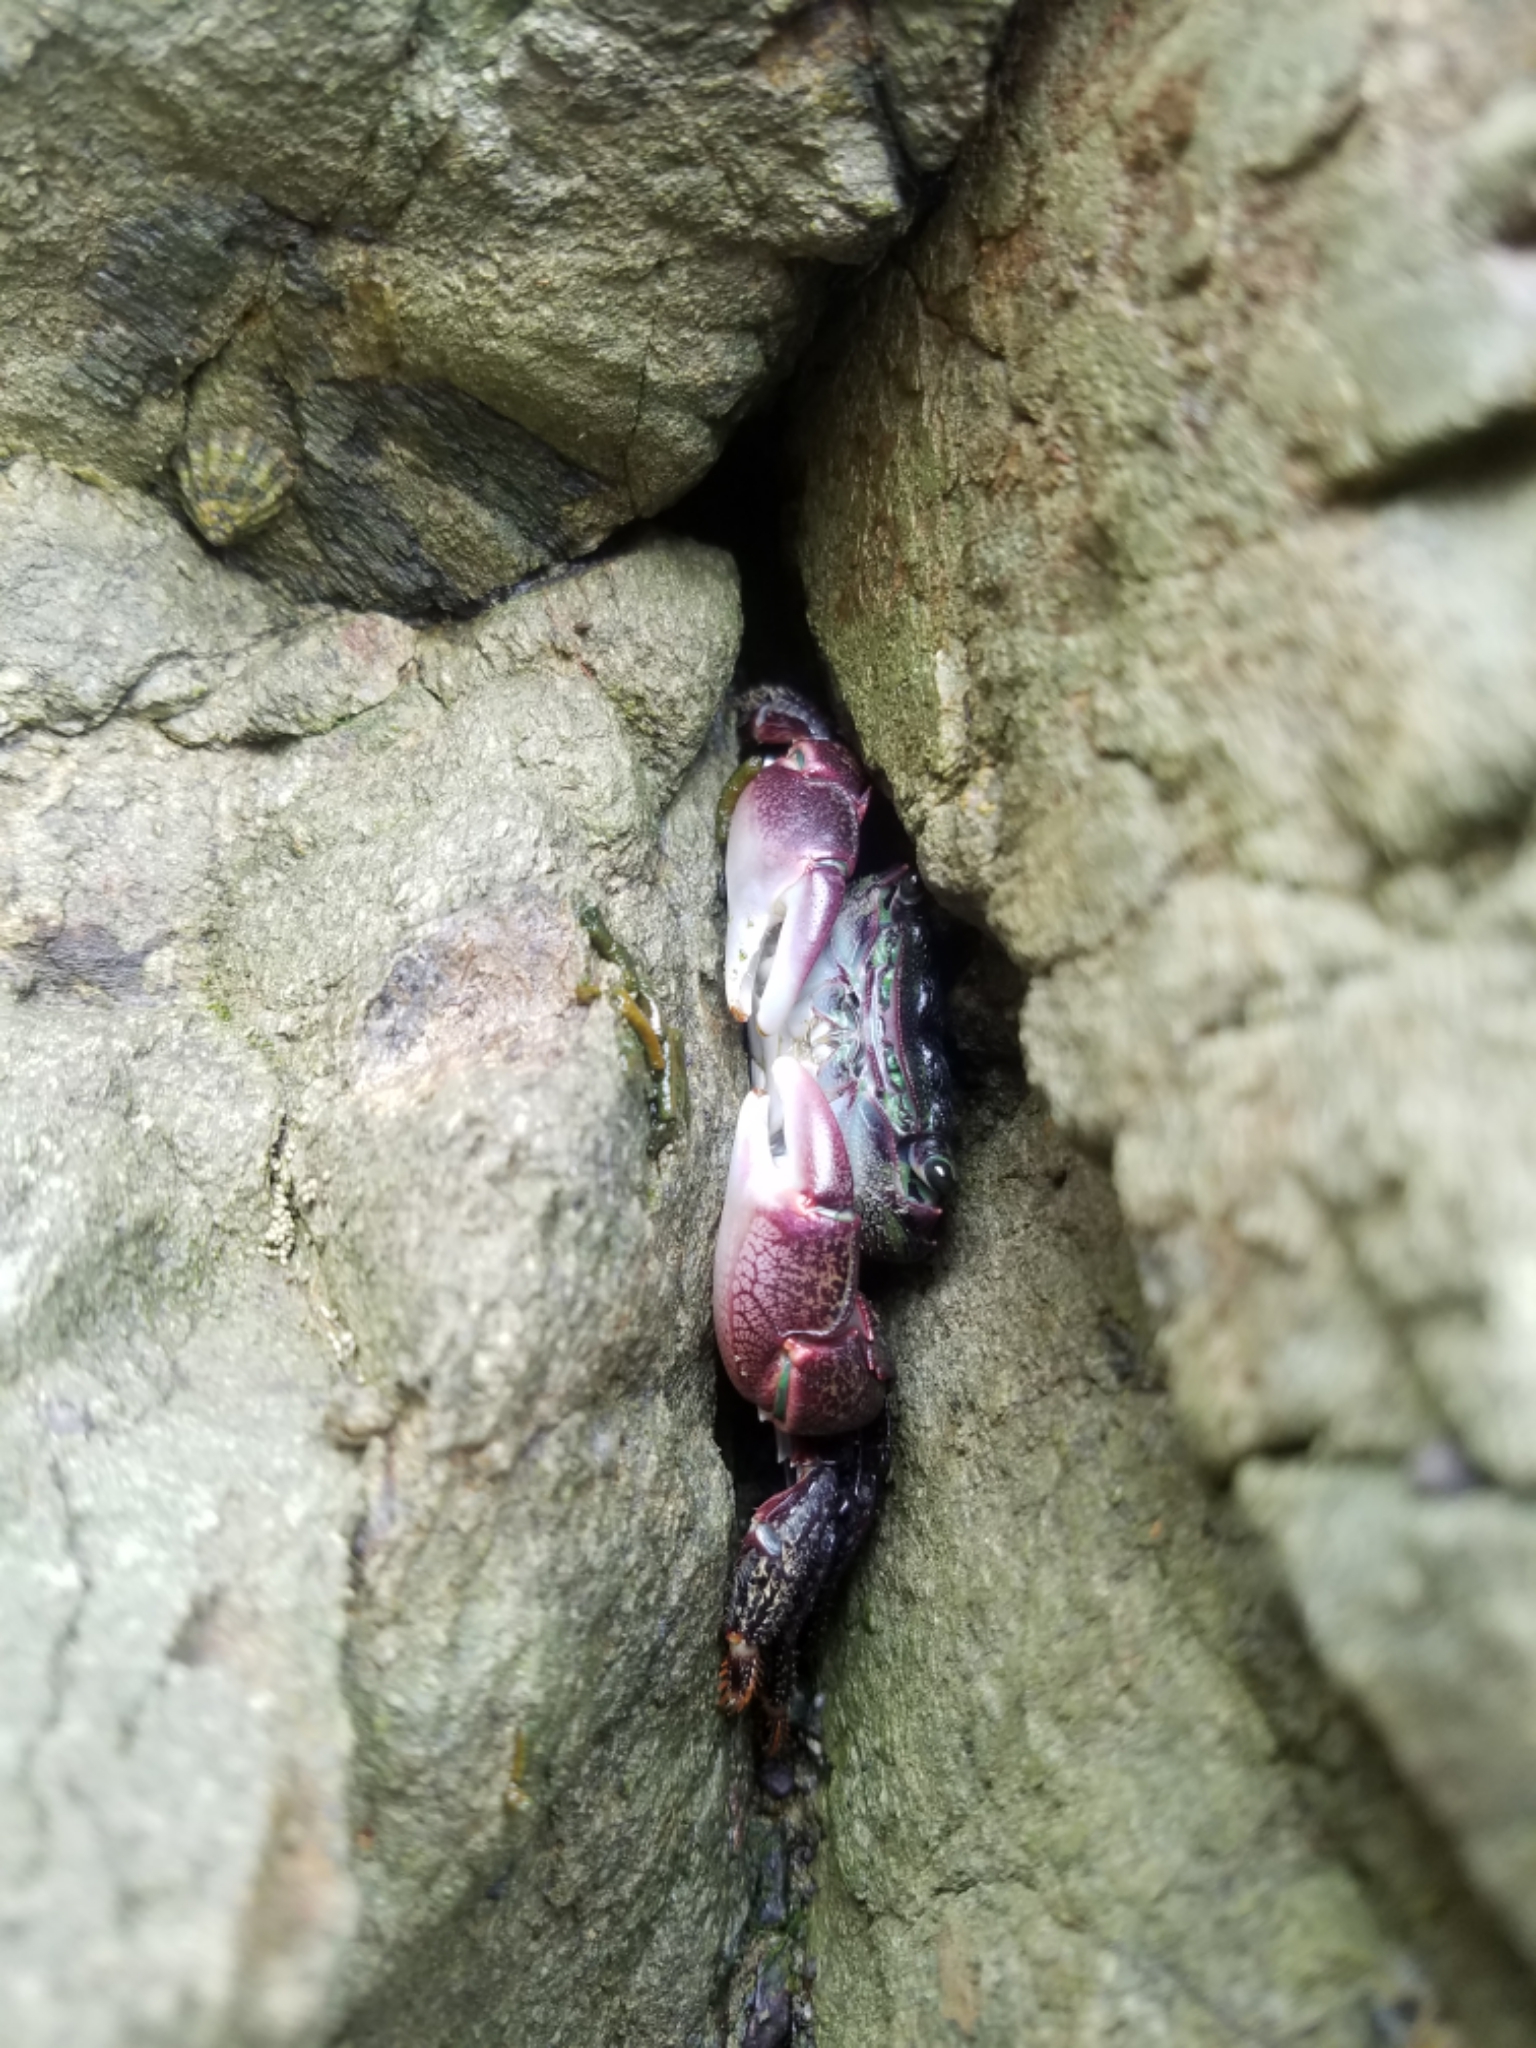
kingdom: Animalia
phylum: Arthropoda
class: Malacostraca
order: Decapoda
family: Grapsidae
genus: Pachygrapsus
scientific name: Pachygrapsus crassipes
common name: Striped shore crab
